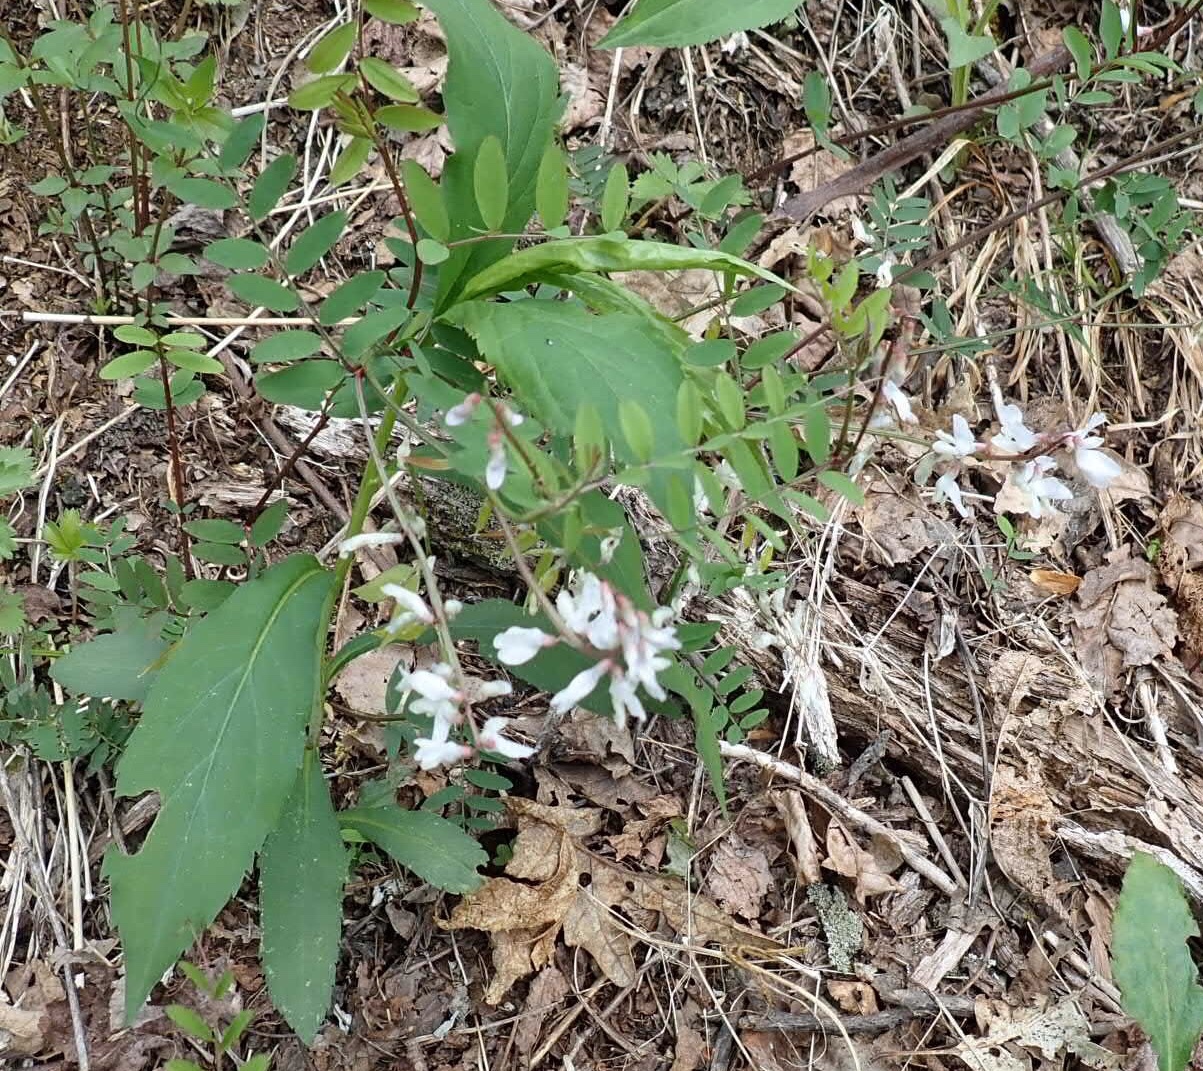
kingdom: Plantae
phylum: Tracheophyta
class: Magnoliopsida
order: Fabales
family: Fabaceae
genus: Vicia
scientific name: Vicia caroliniana
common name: Carolina vetch
